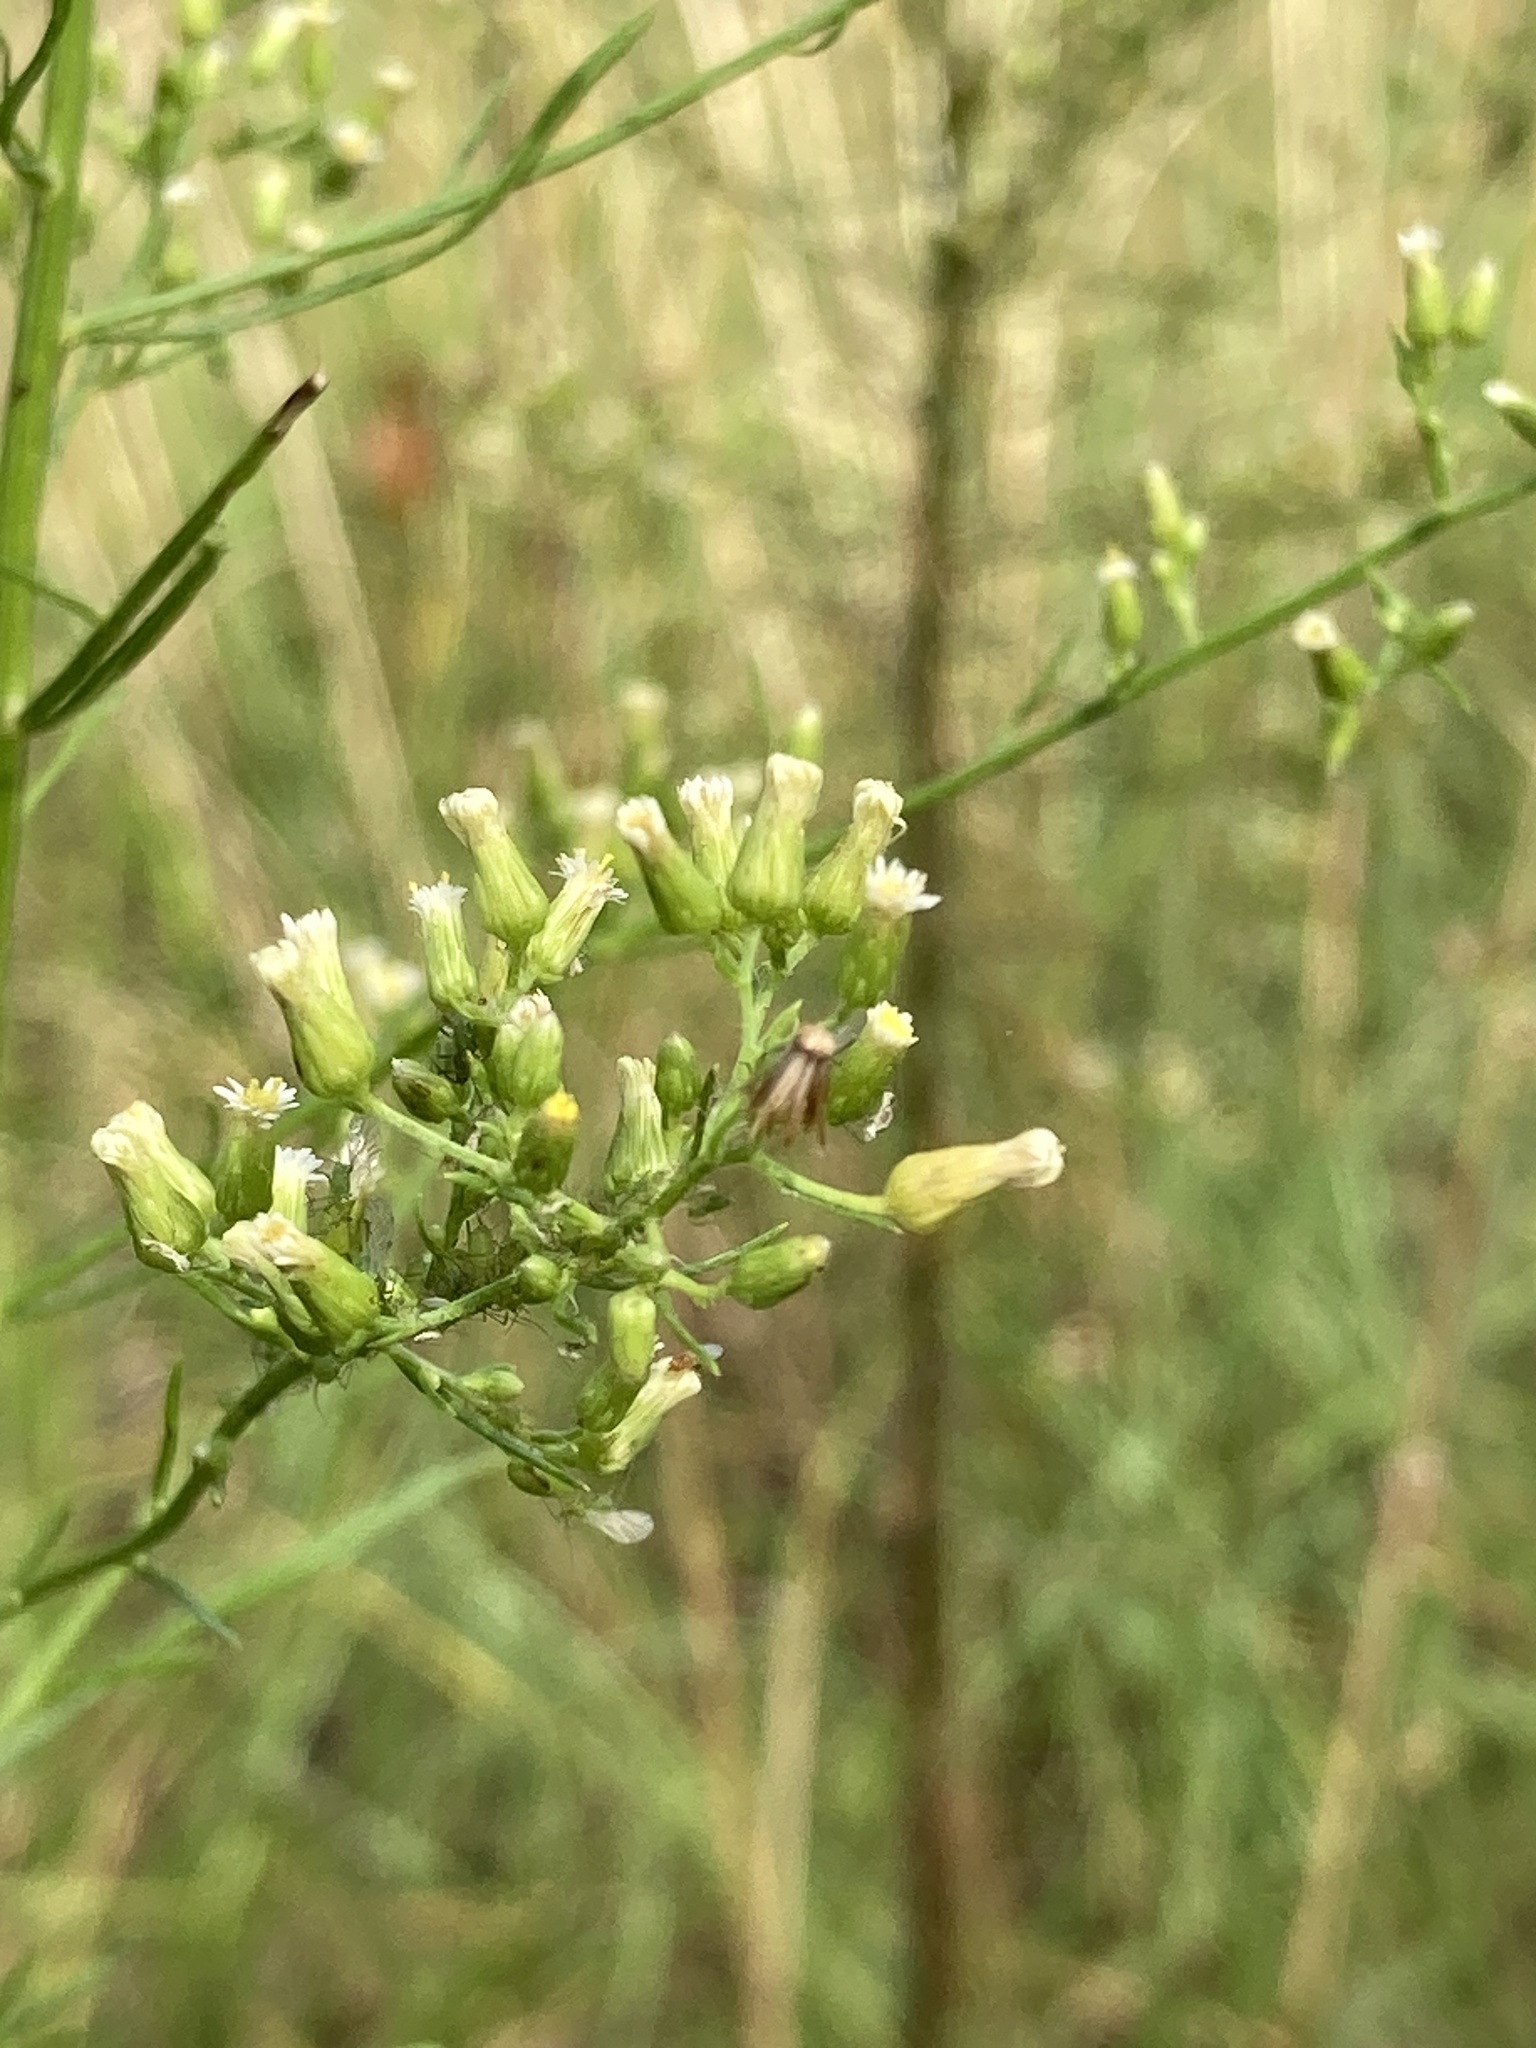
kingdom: Plantae
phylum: Tracheophyta
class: Magnoliopsida
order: Asterales
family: Asteraceae
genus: Erigeron
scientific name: Erigeron canadensis
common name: Canadian fleabane
